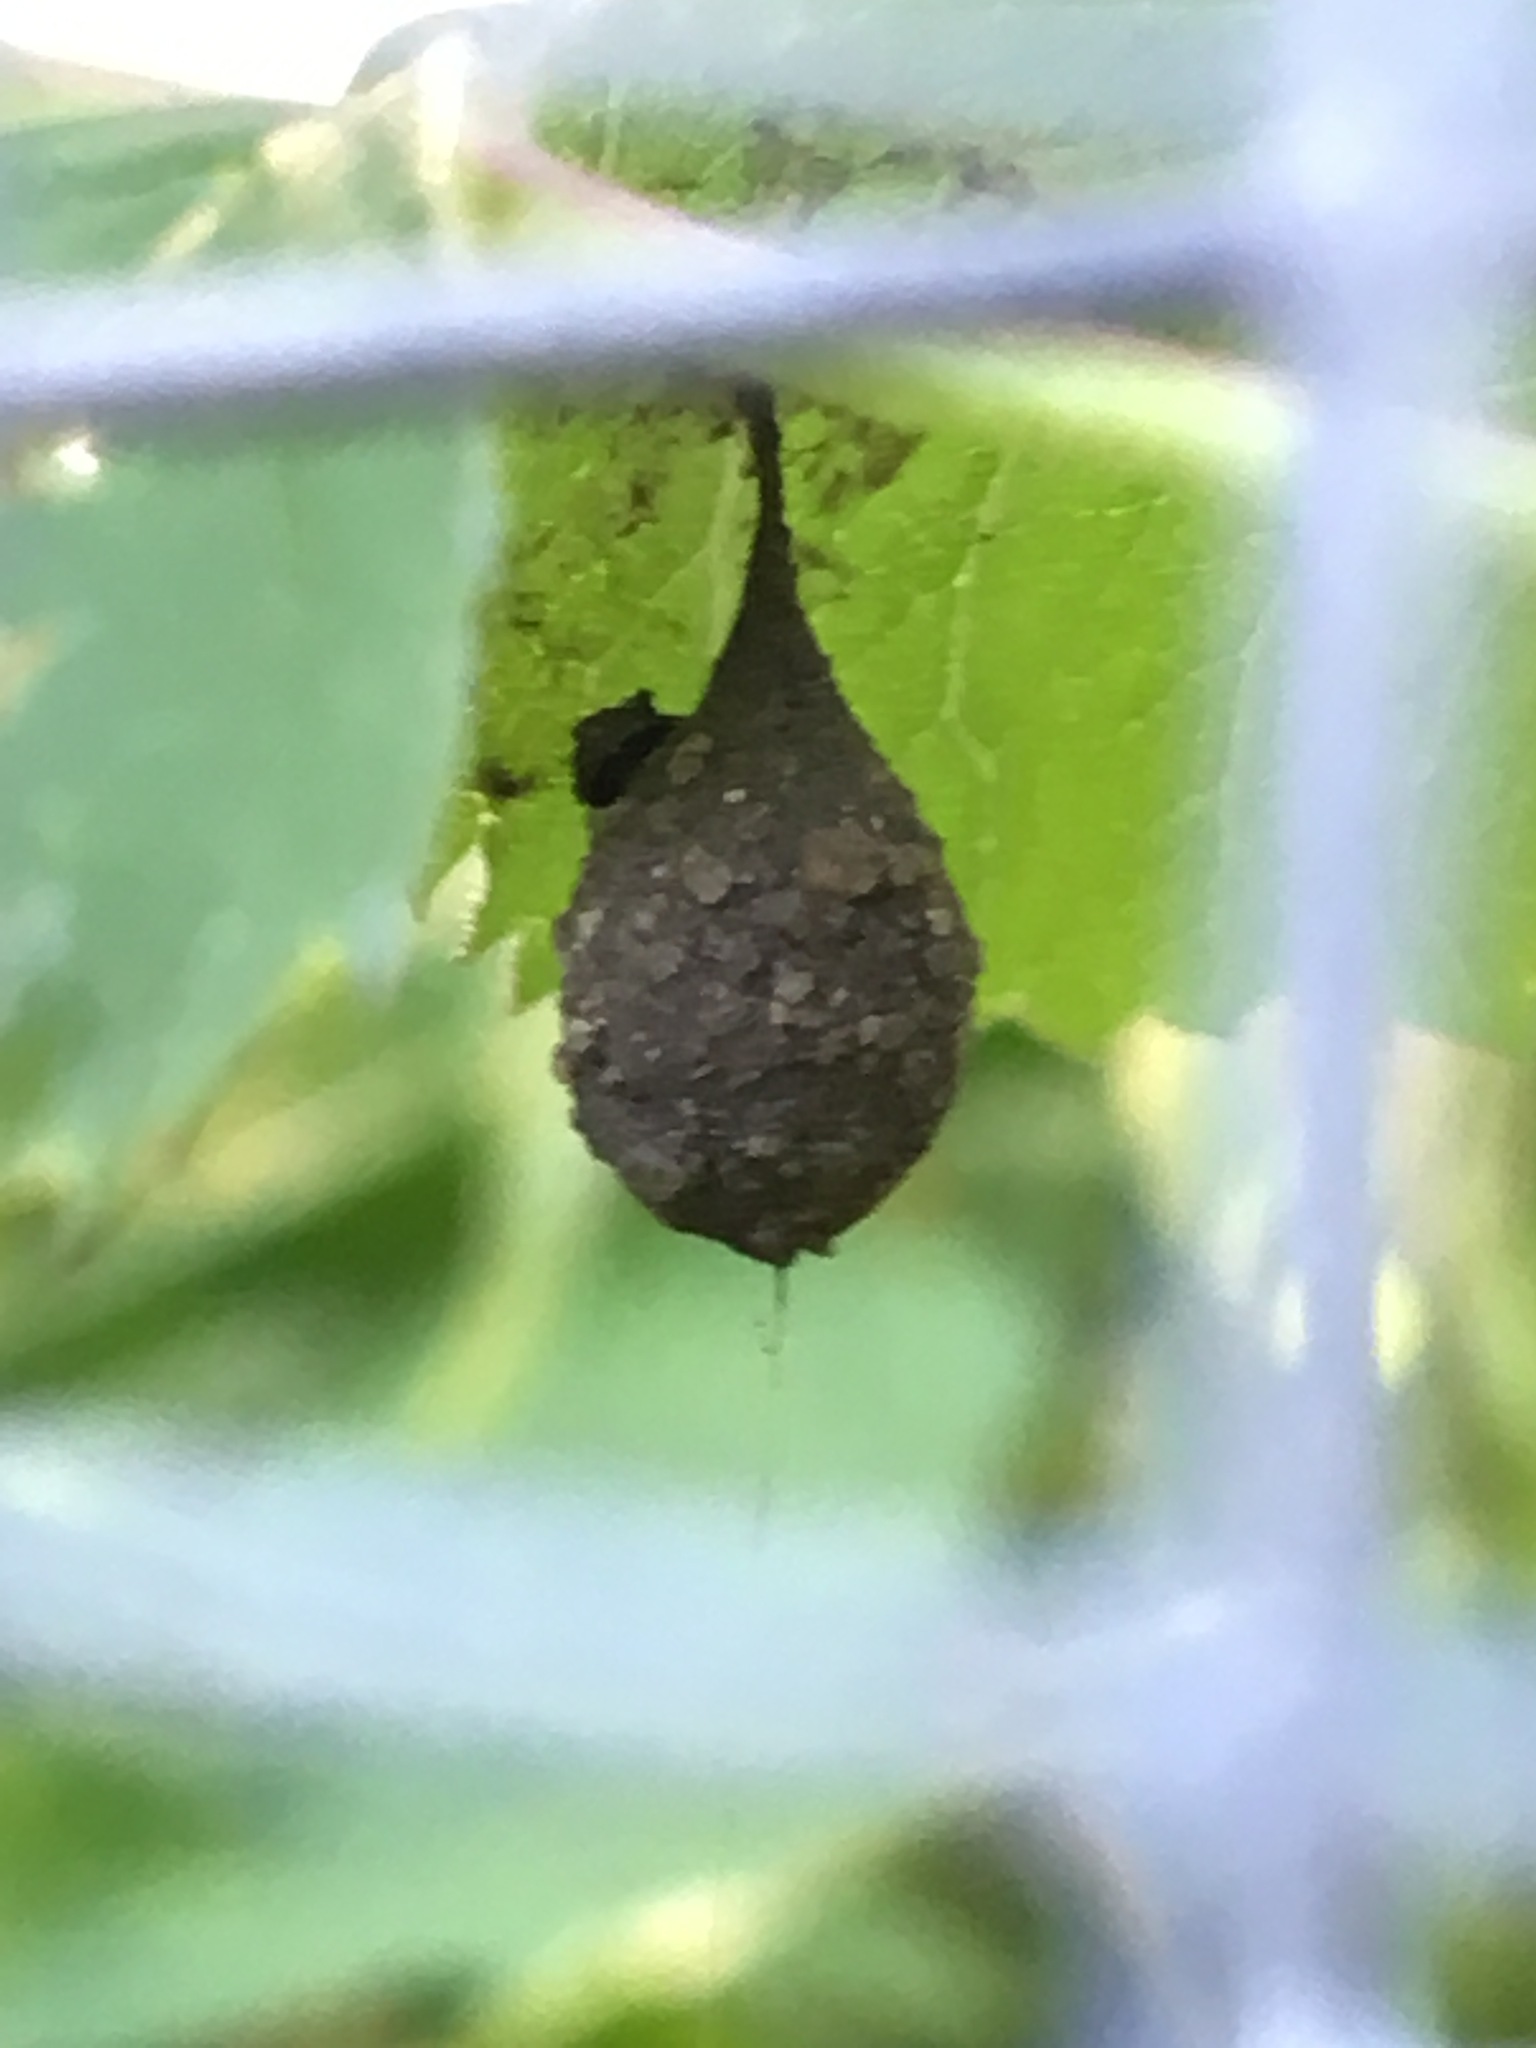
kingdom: Animalia
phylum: Arthropoda
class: Arachnida
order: Araneae
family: Liocranidae
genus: Agroeca
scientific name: Agroeca pratensis
